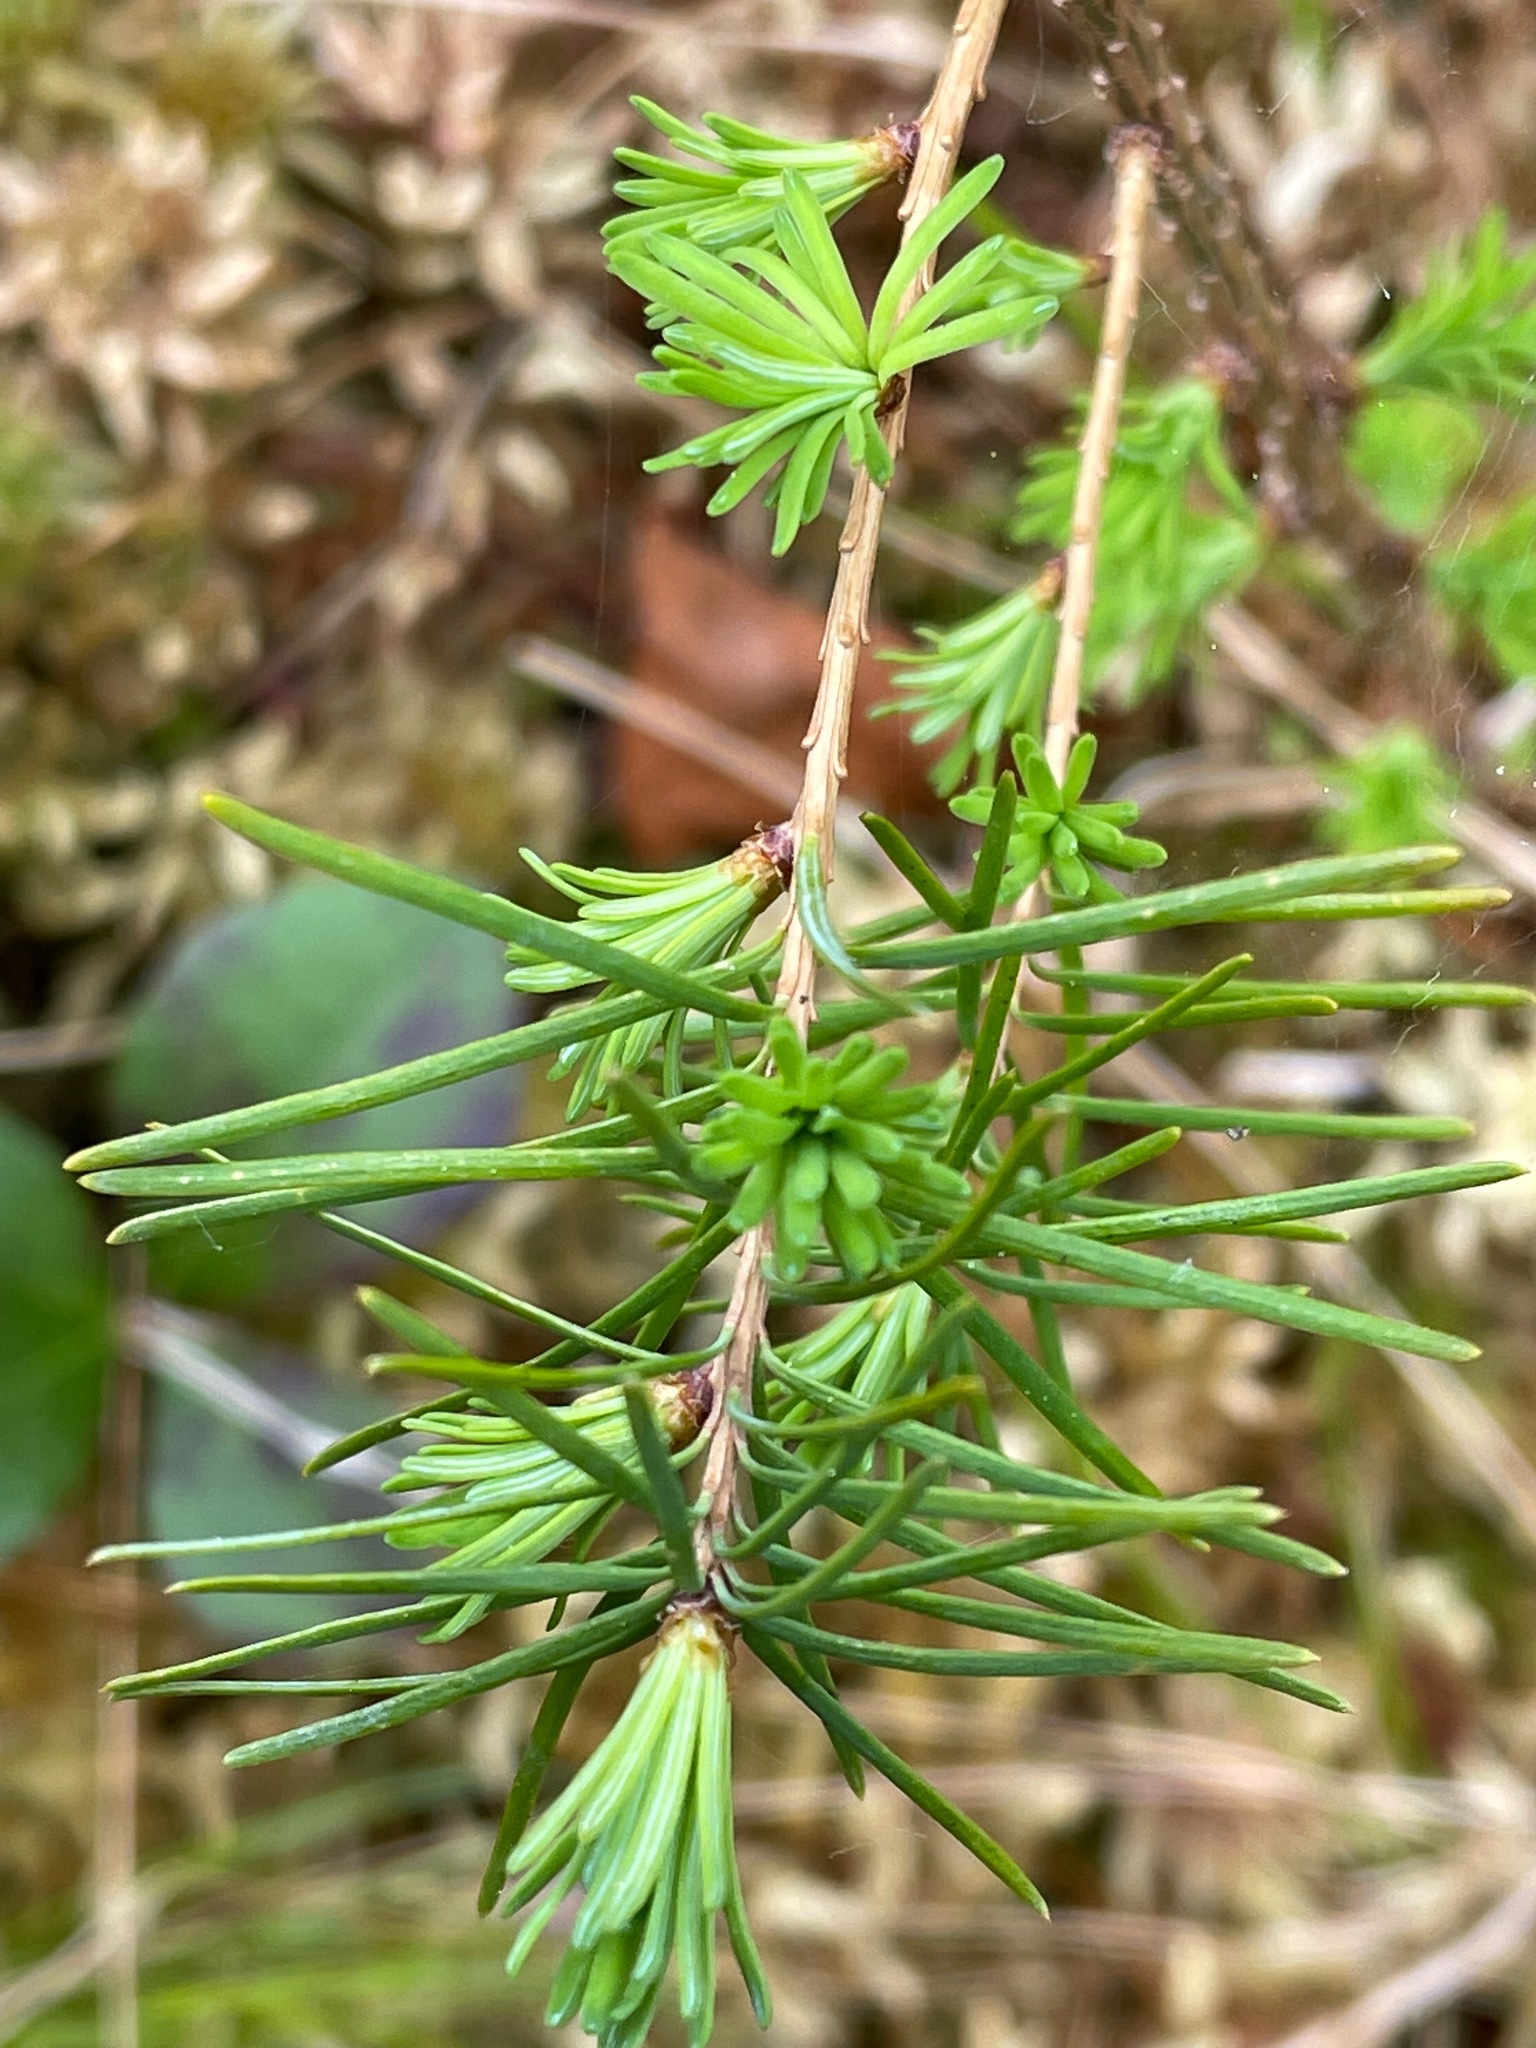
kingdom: Plantae
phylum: Tracheophyta
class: Pinopsida
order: Pinales
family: Pinaceae
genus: Larix
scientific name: Larix laricina
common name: American larch
